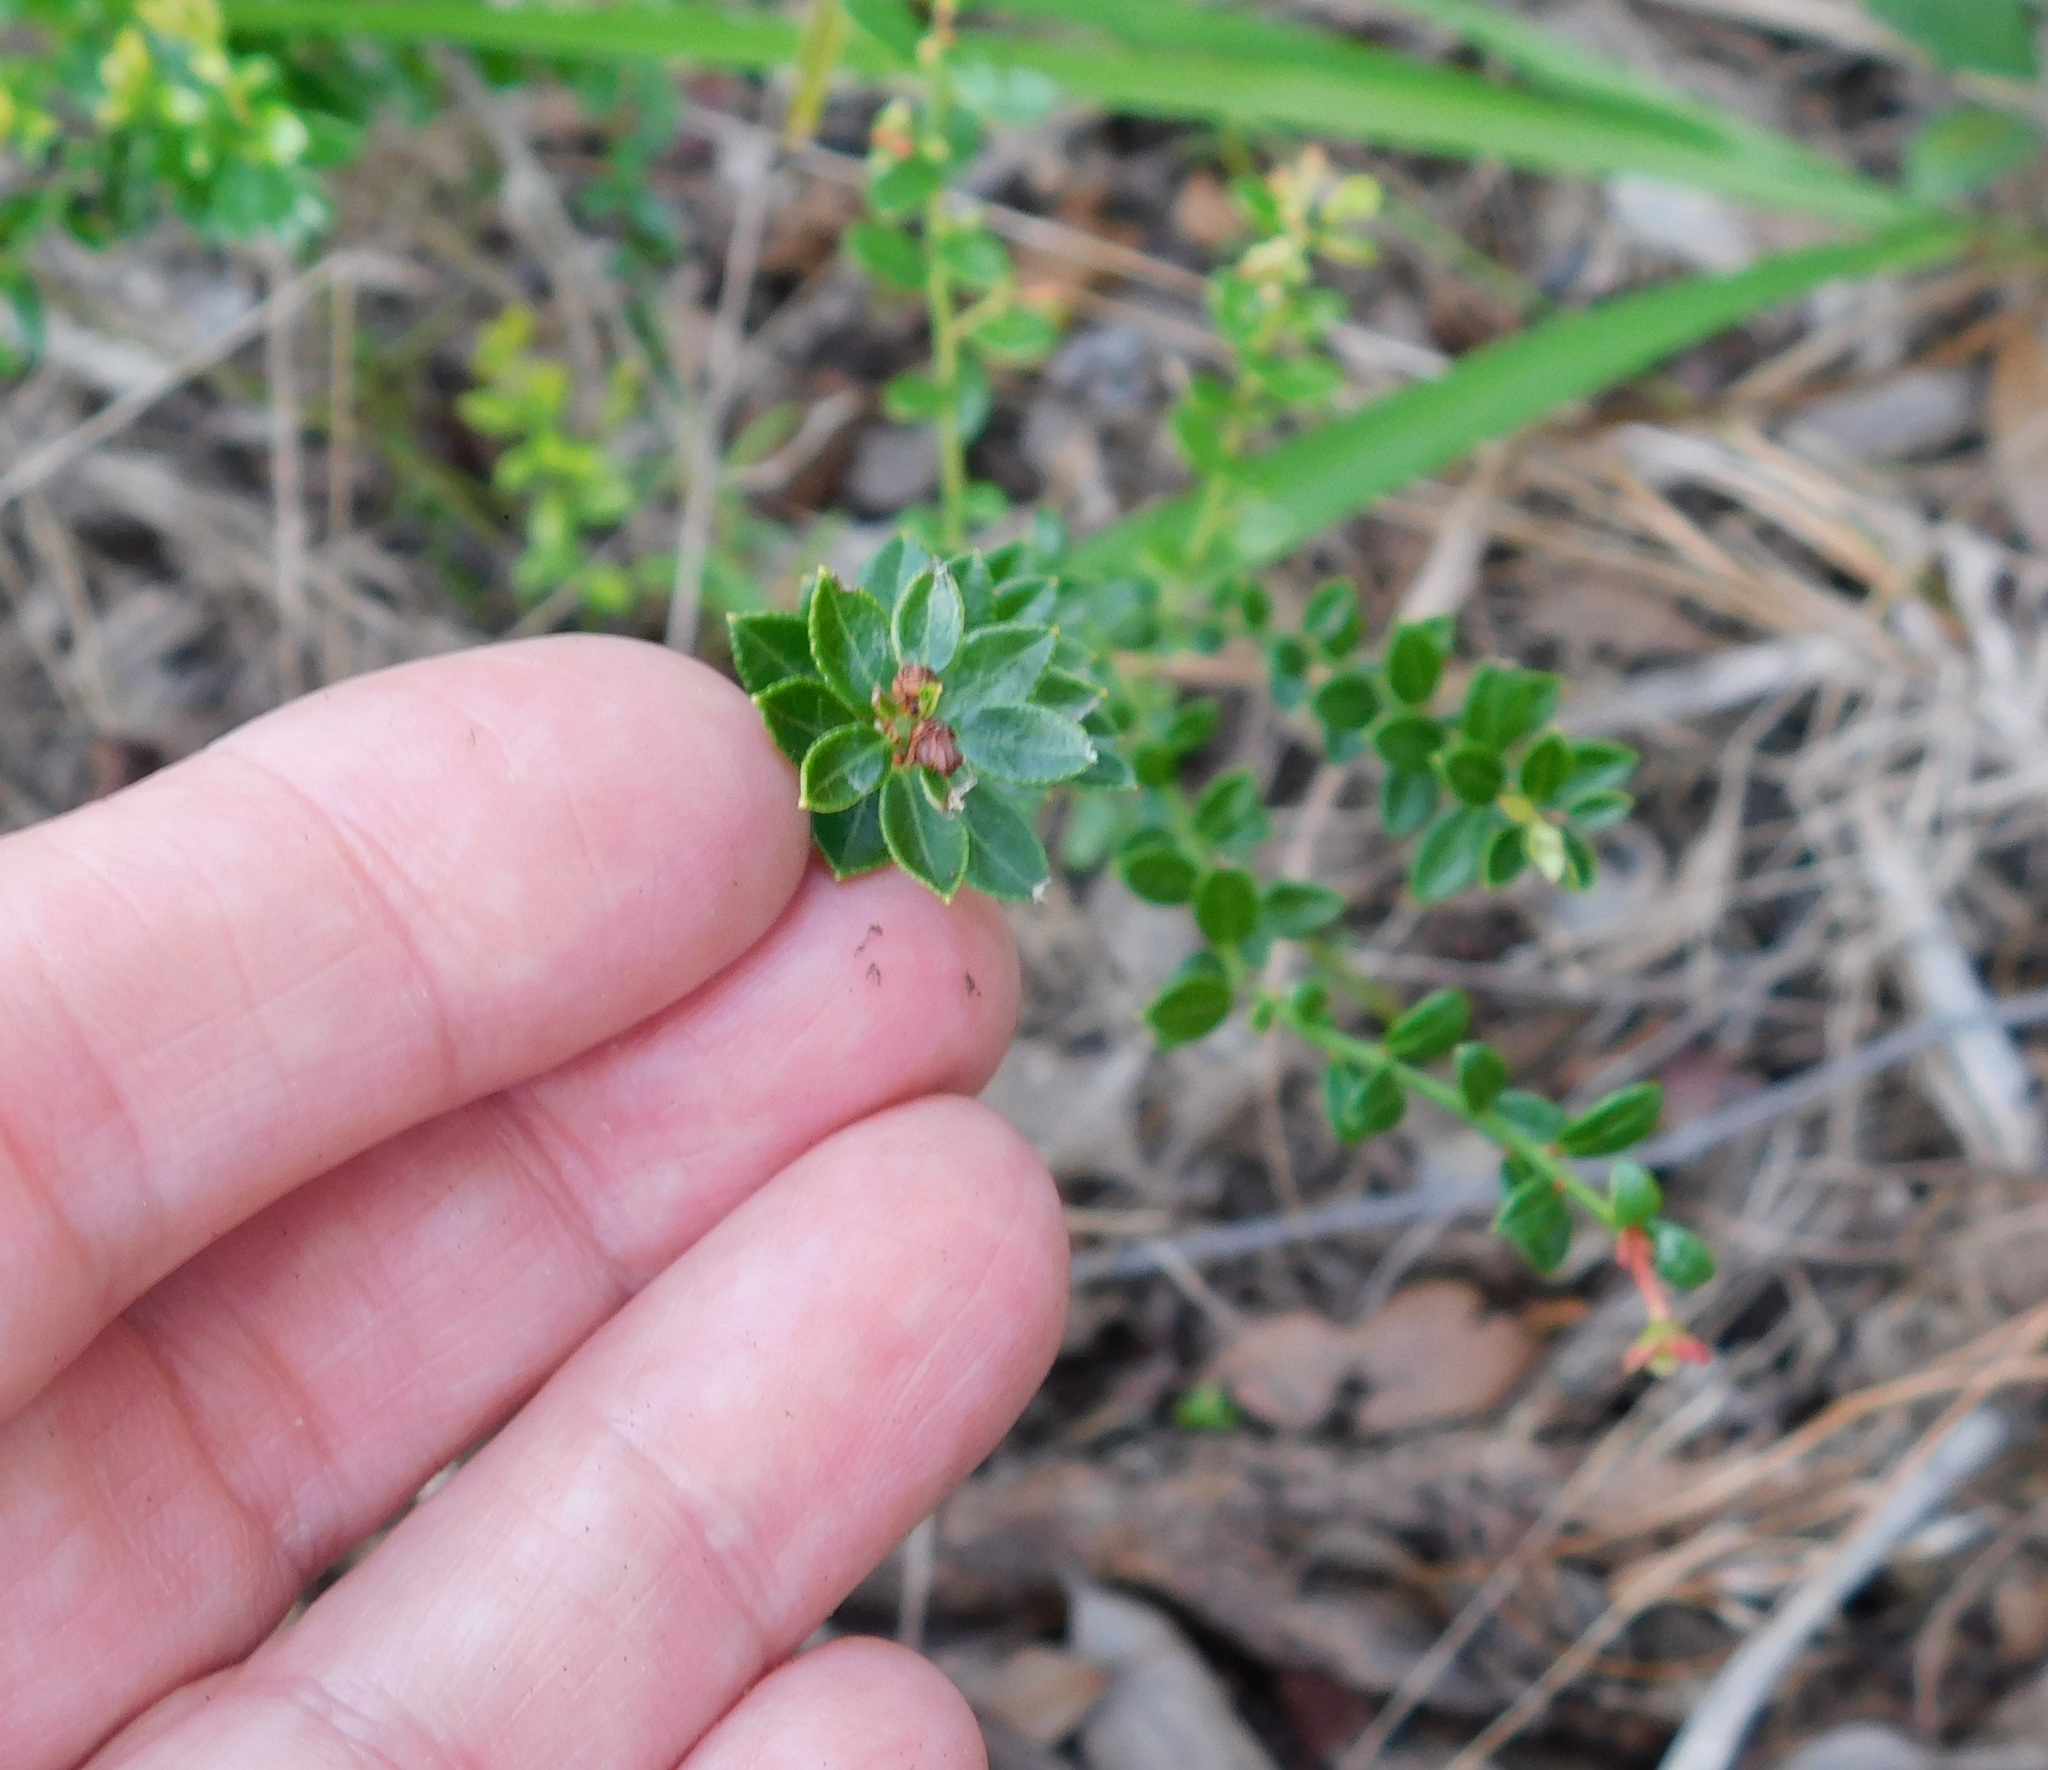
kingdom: Plantae
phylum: Tracheophyta
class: Magnoliopsida
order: Ericales
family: Ericaceae
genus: Vaccinium
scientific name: Vaccinium myrsinites
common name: Evergreen blueberry
